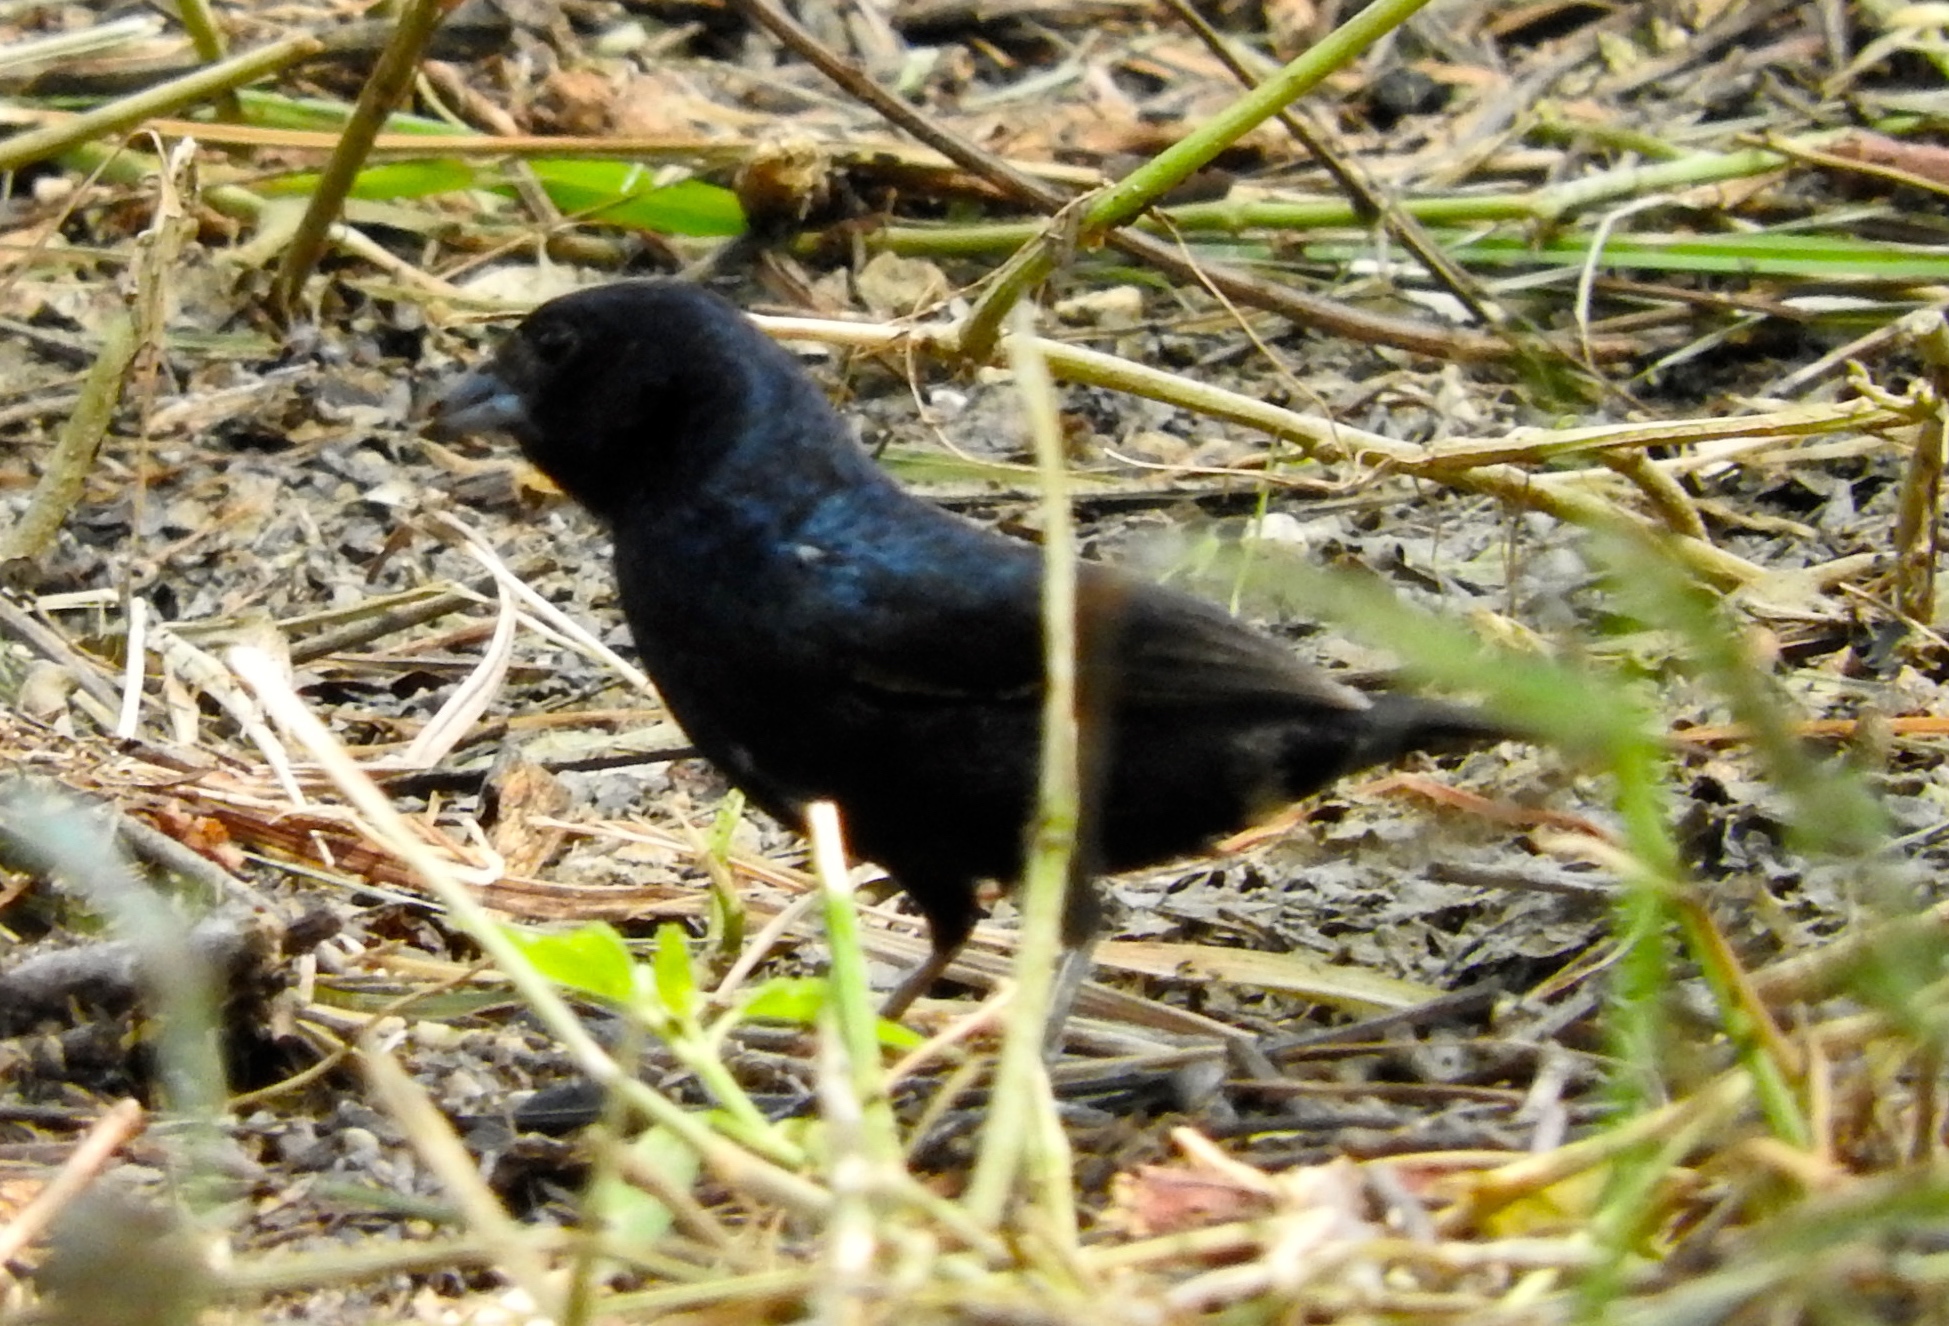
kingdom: Animalia
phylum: Chordata
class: Aves
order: Passeriformes
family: Thraupidae
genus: Volatinia
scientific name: Volatinia jacarina
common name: Blue-black grassquit
